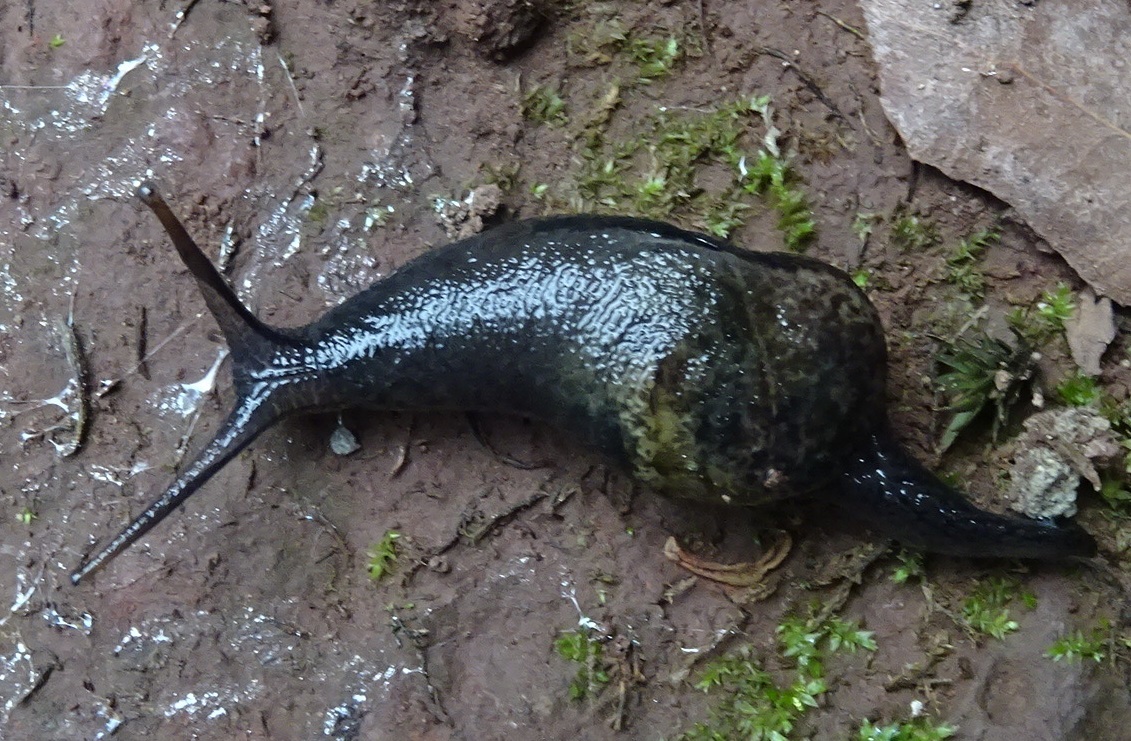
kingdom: Animalia
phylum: Mollusca
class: Gastropoda
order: Stylommatophora
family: Vitrinidae
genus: Insulivitrina
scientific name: Insulivitrina lamarckii
